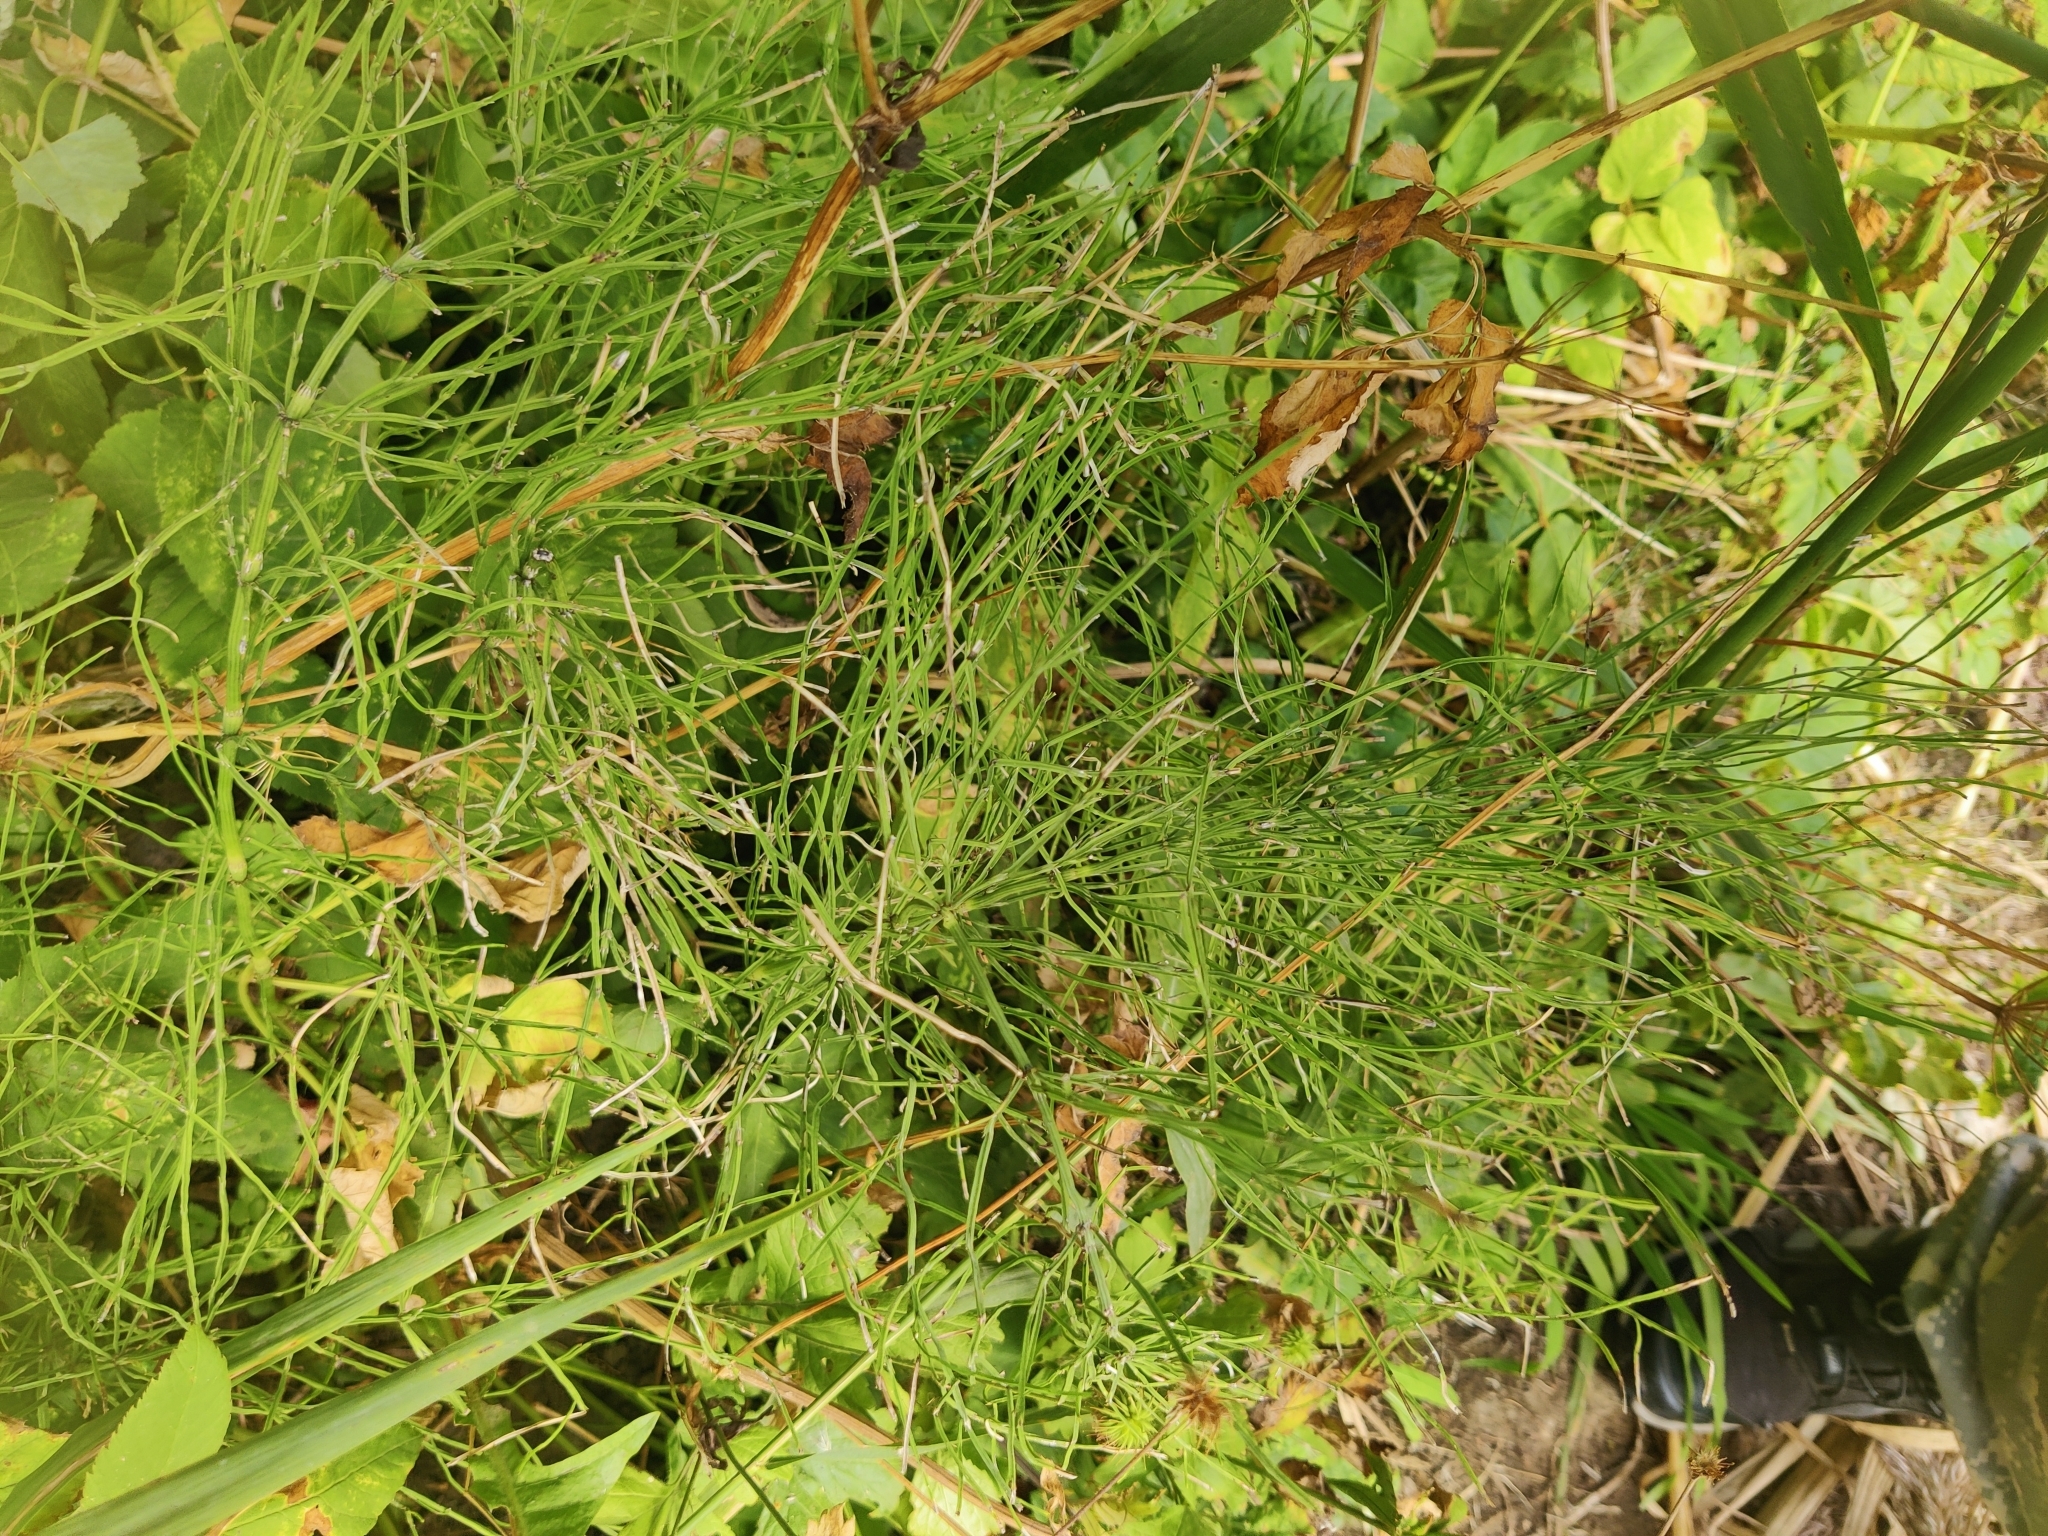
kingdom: Plantae
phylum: Tracheophyta
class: Polypodiopsida
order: Equisetales
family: Equisetaceae
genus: Equisetum
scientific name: Equisetum arvense
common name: Field horsetail
